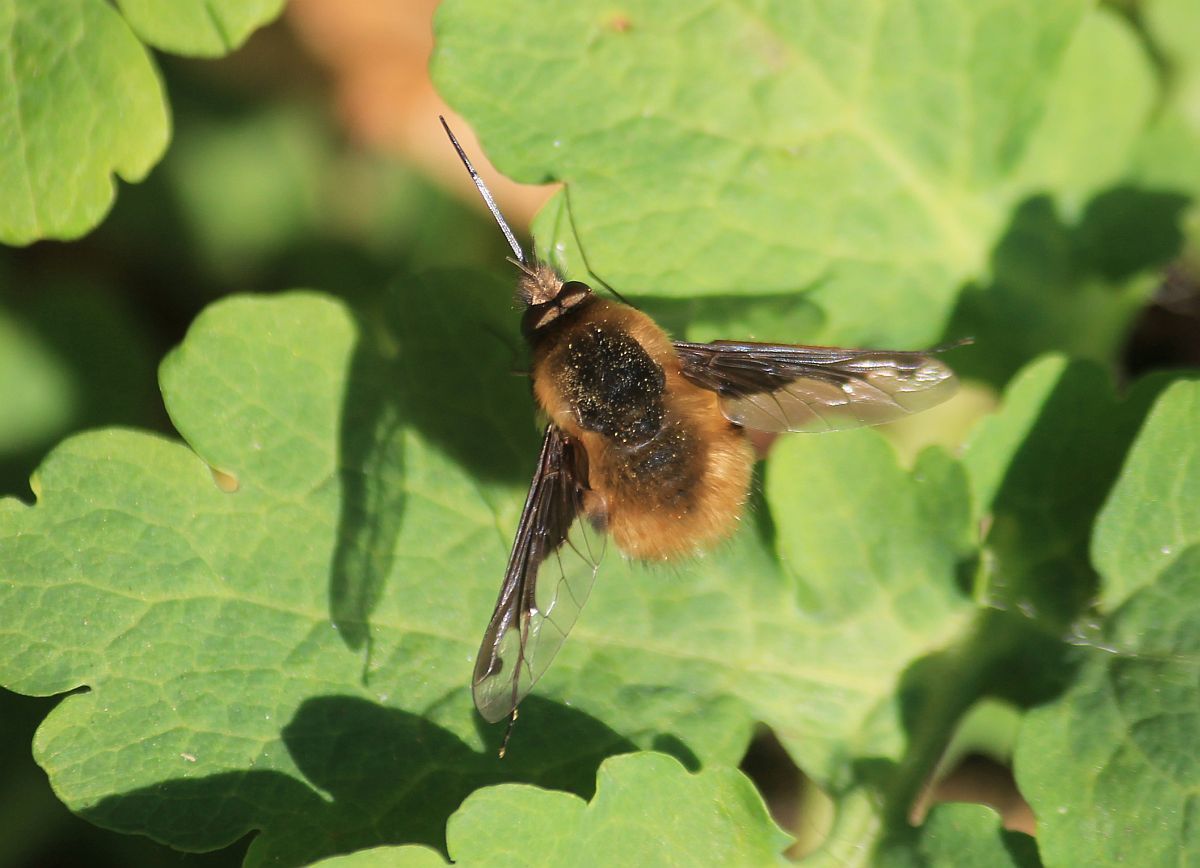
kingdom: Animalia
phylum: Arthropoda
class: Insecta
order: Diptera
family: Bombyliidae
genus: Bombylius
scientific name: Bombylius major
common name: Bee fly
